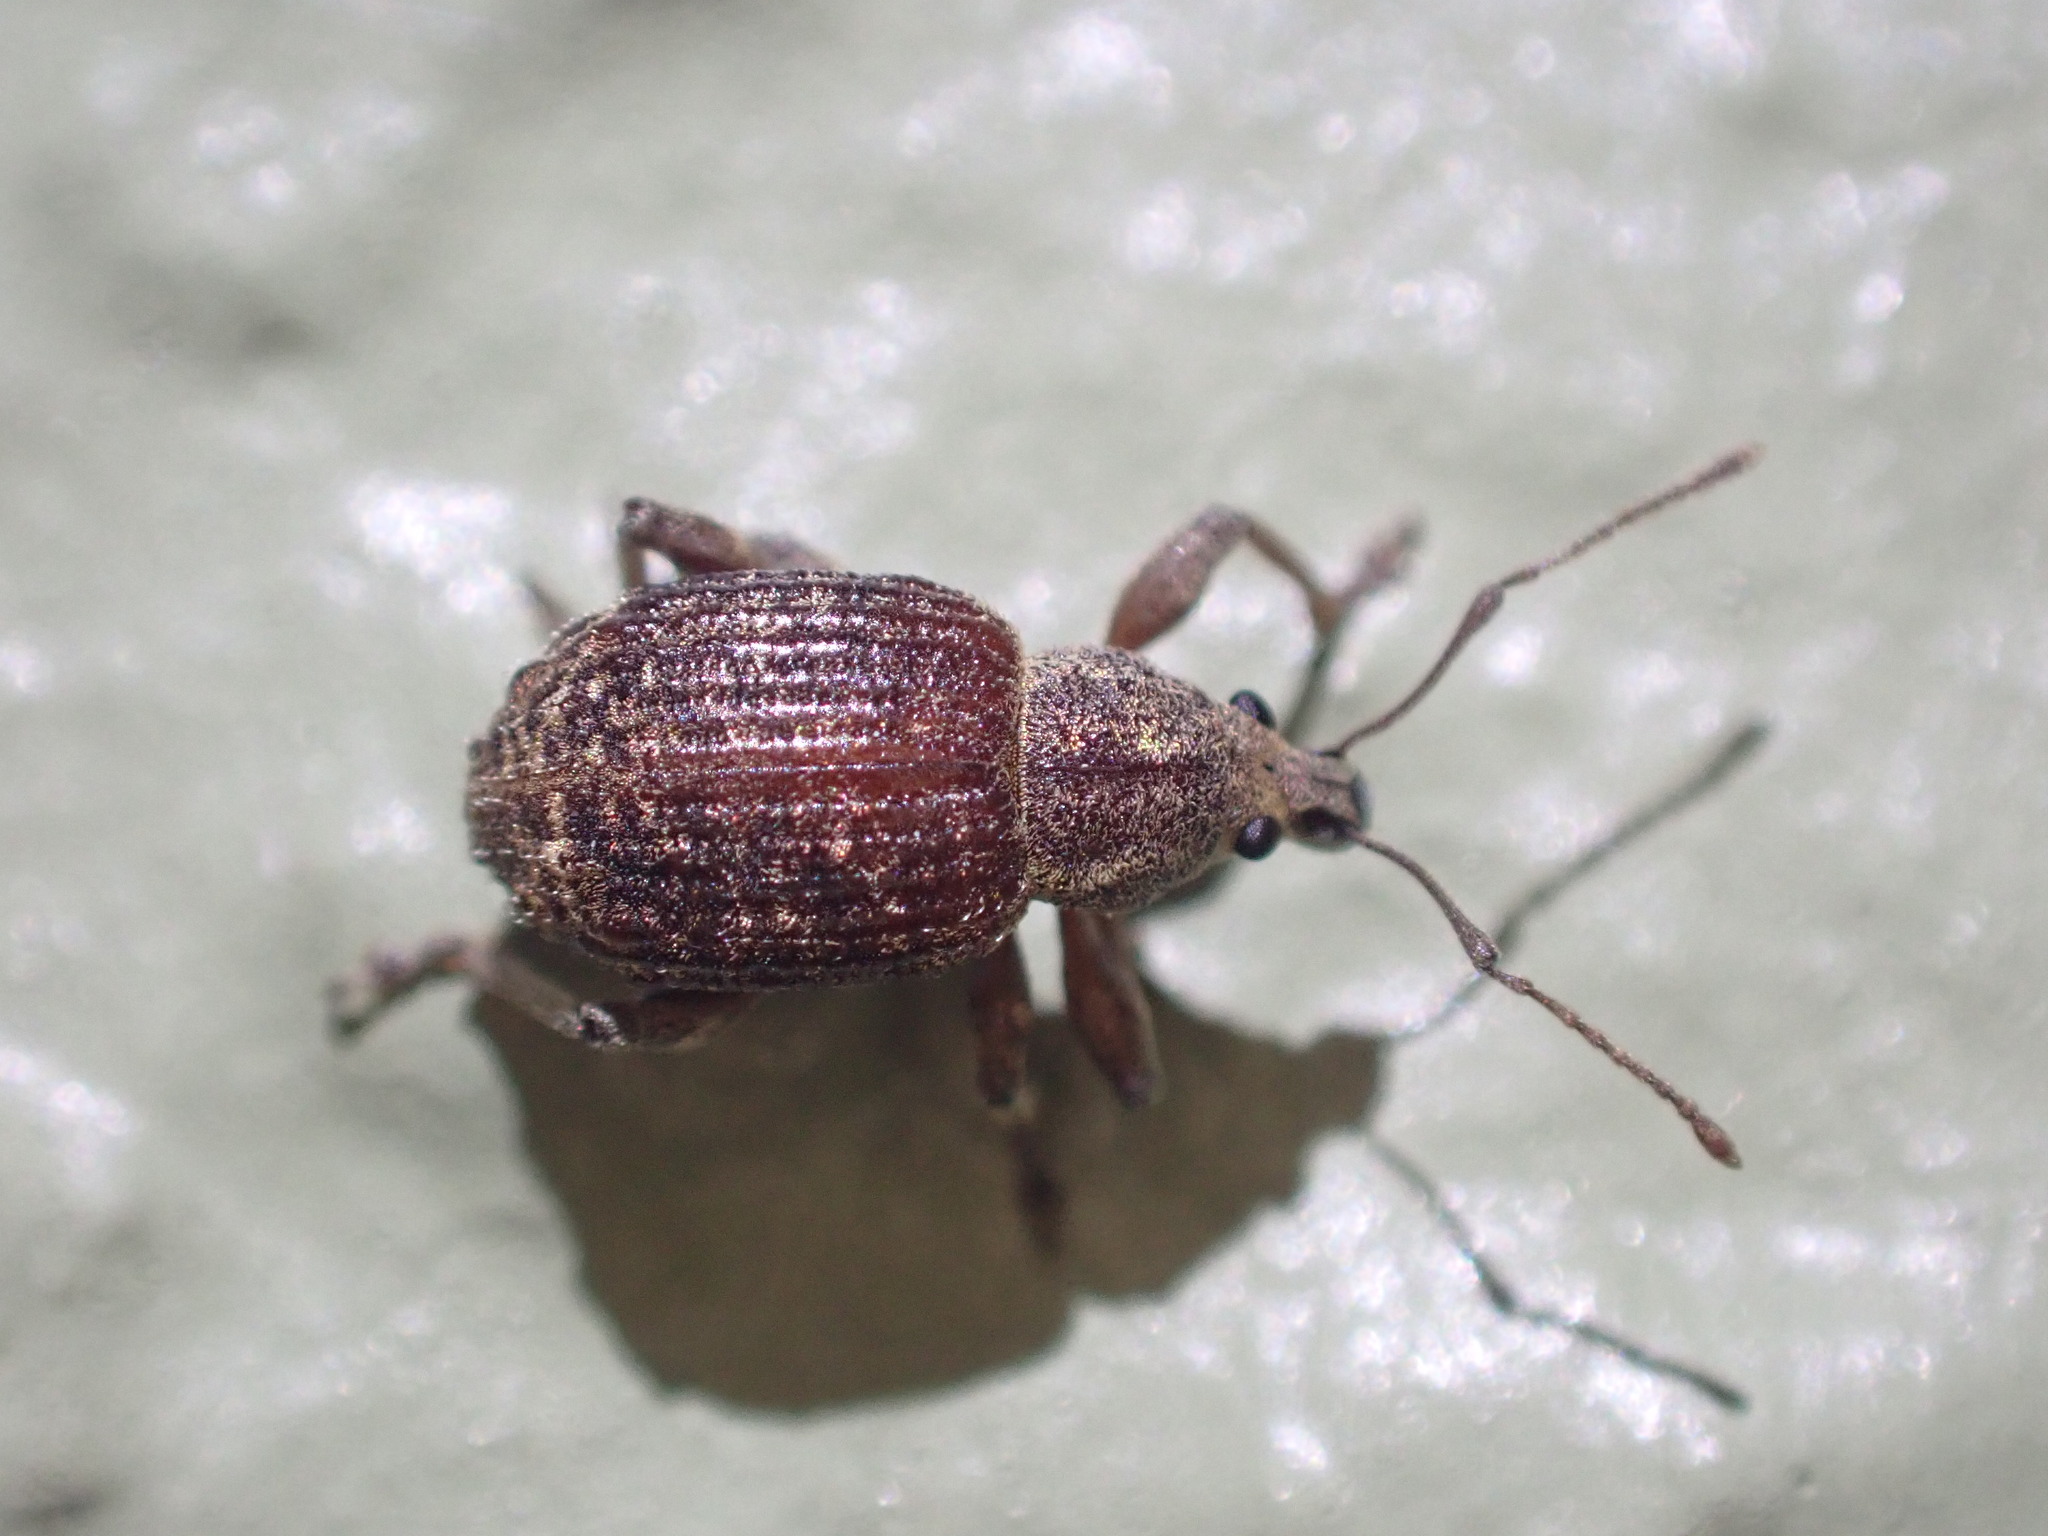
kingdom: Animalia
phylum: Arthropoda
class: Insecta
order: Coleoptera
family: Curculionidae
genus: Phlyctinus
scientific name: Phlyctinus callosus
